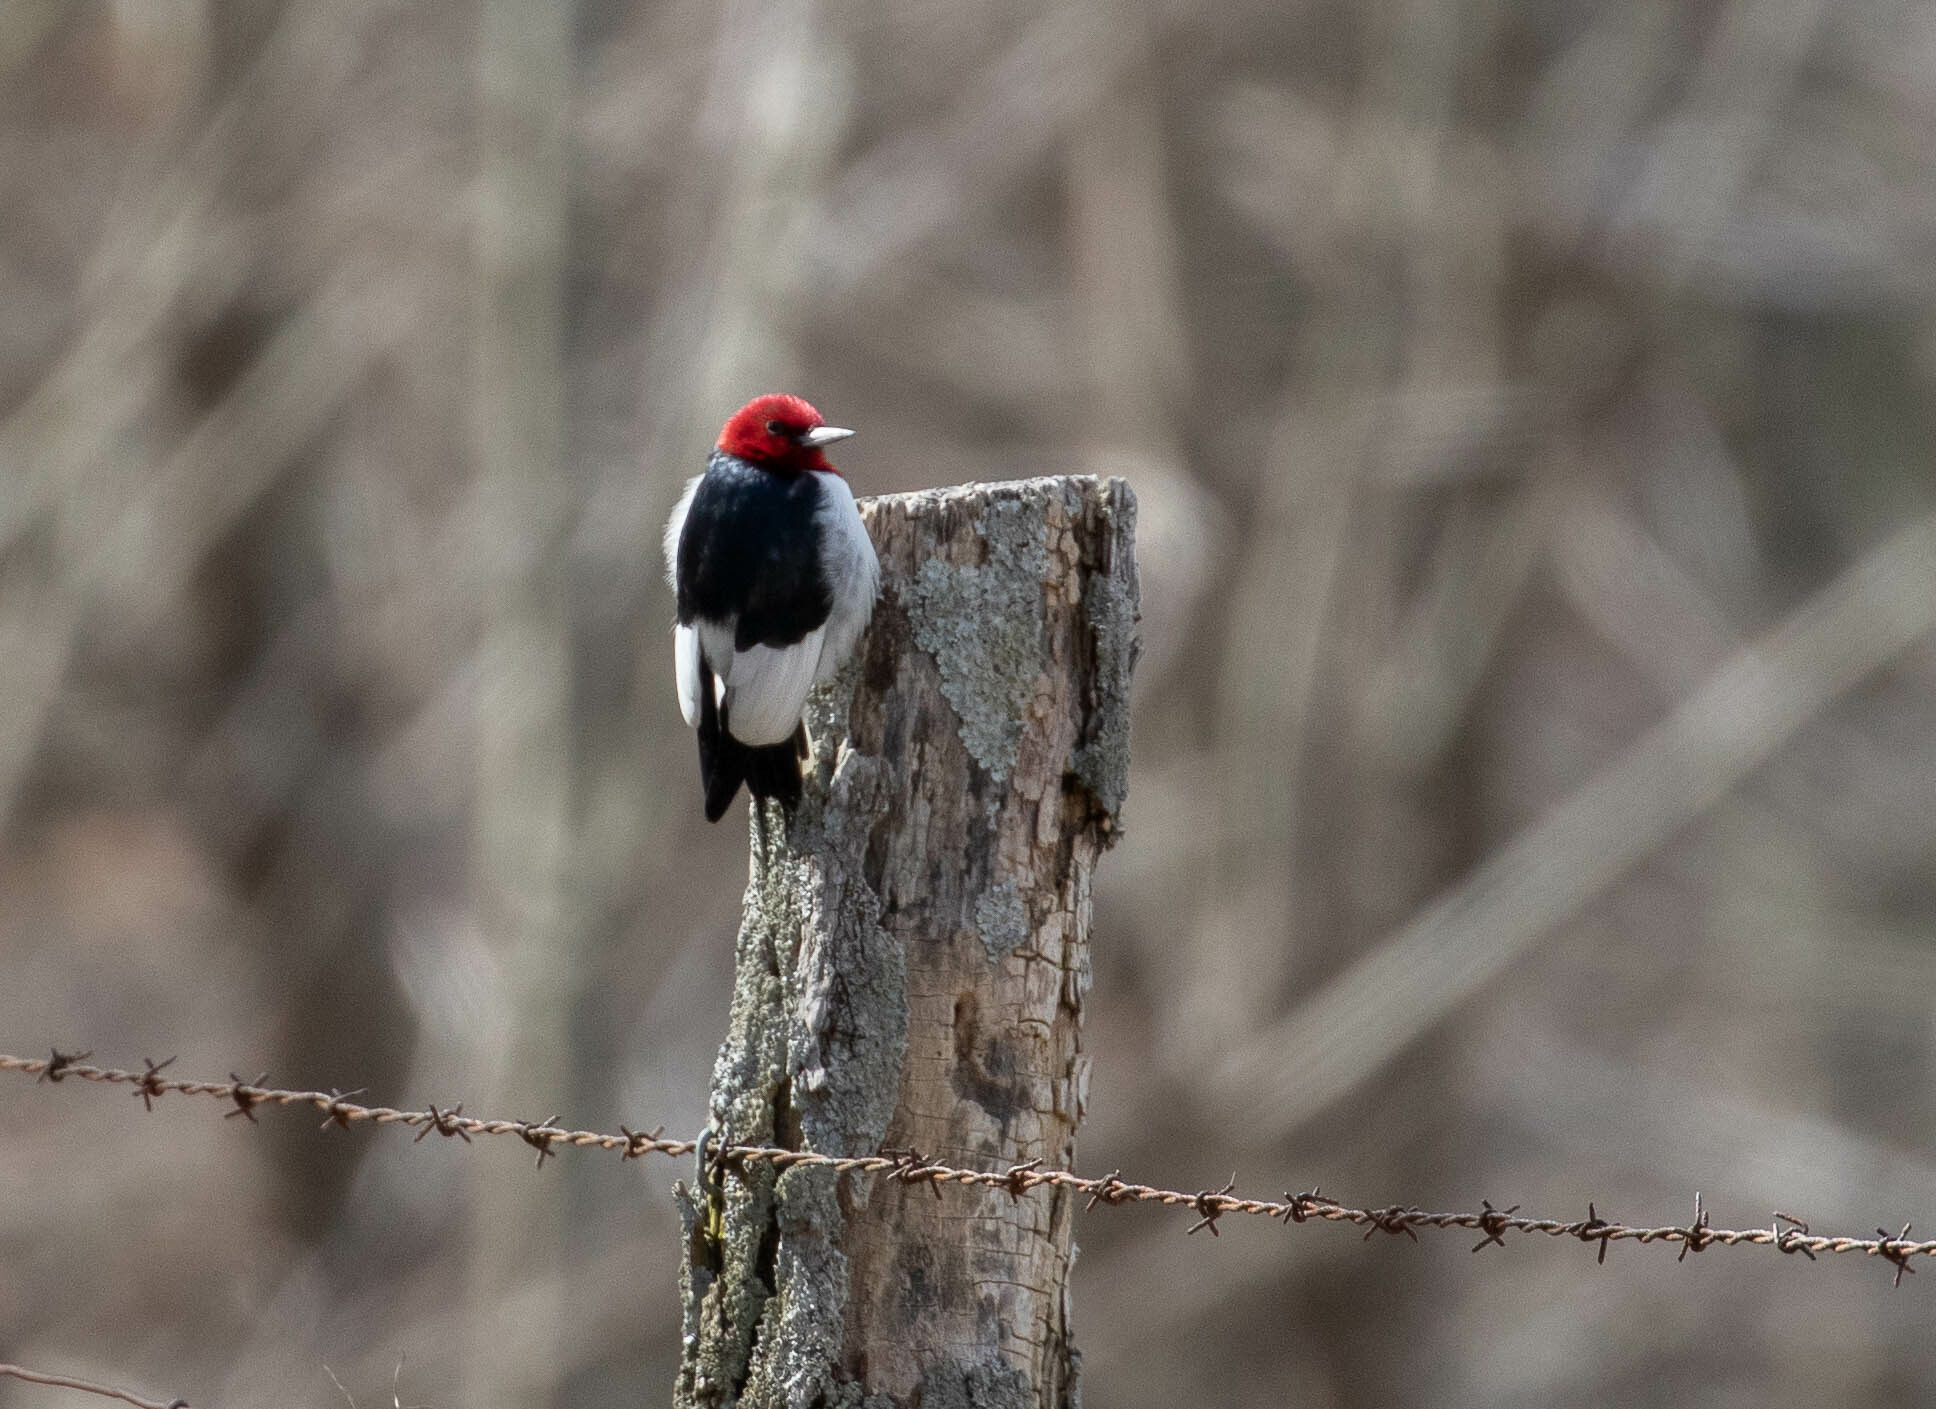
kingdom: Animalia
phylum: Chordata
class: Aves
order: Piciformes
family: Picidae
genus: Melanerpes
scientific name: Melanerpes erythrocephalus
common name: Red-headed woodpecker
